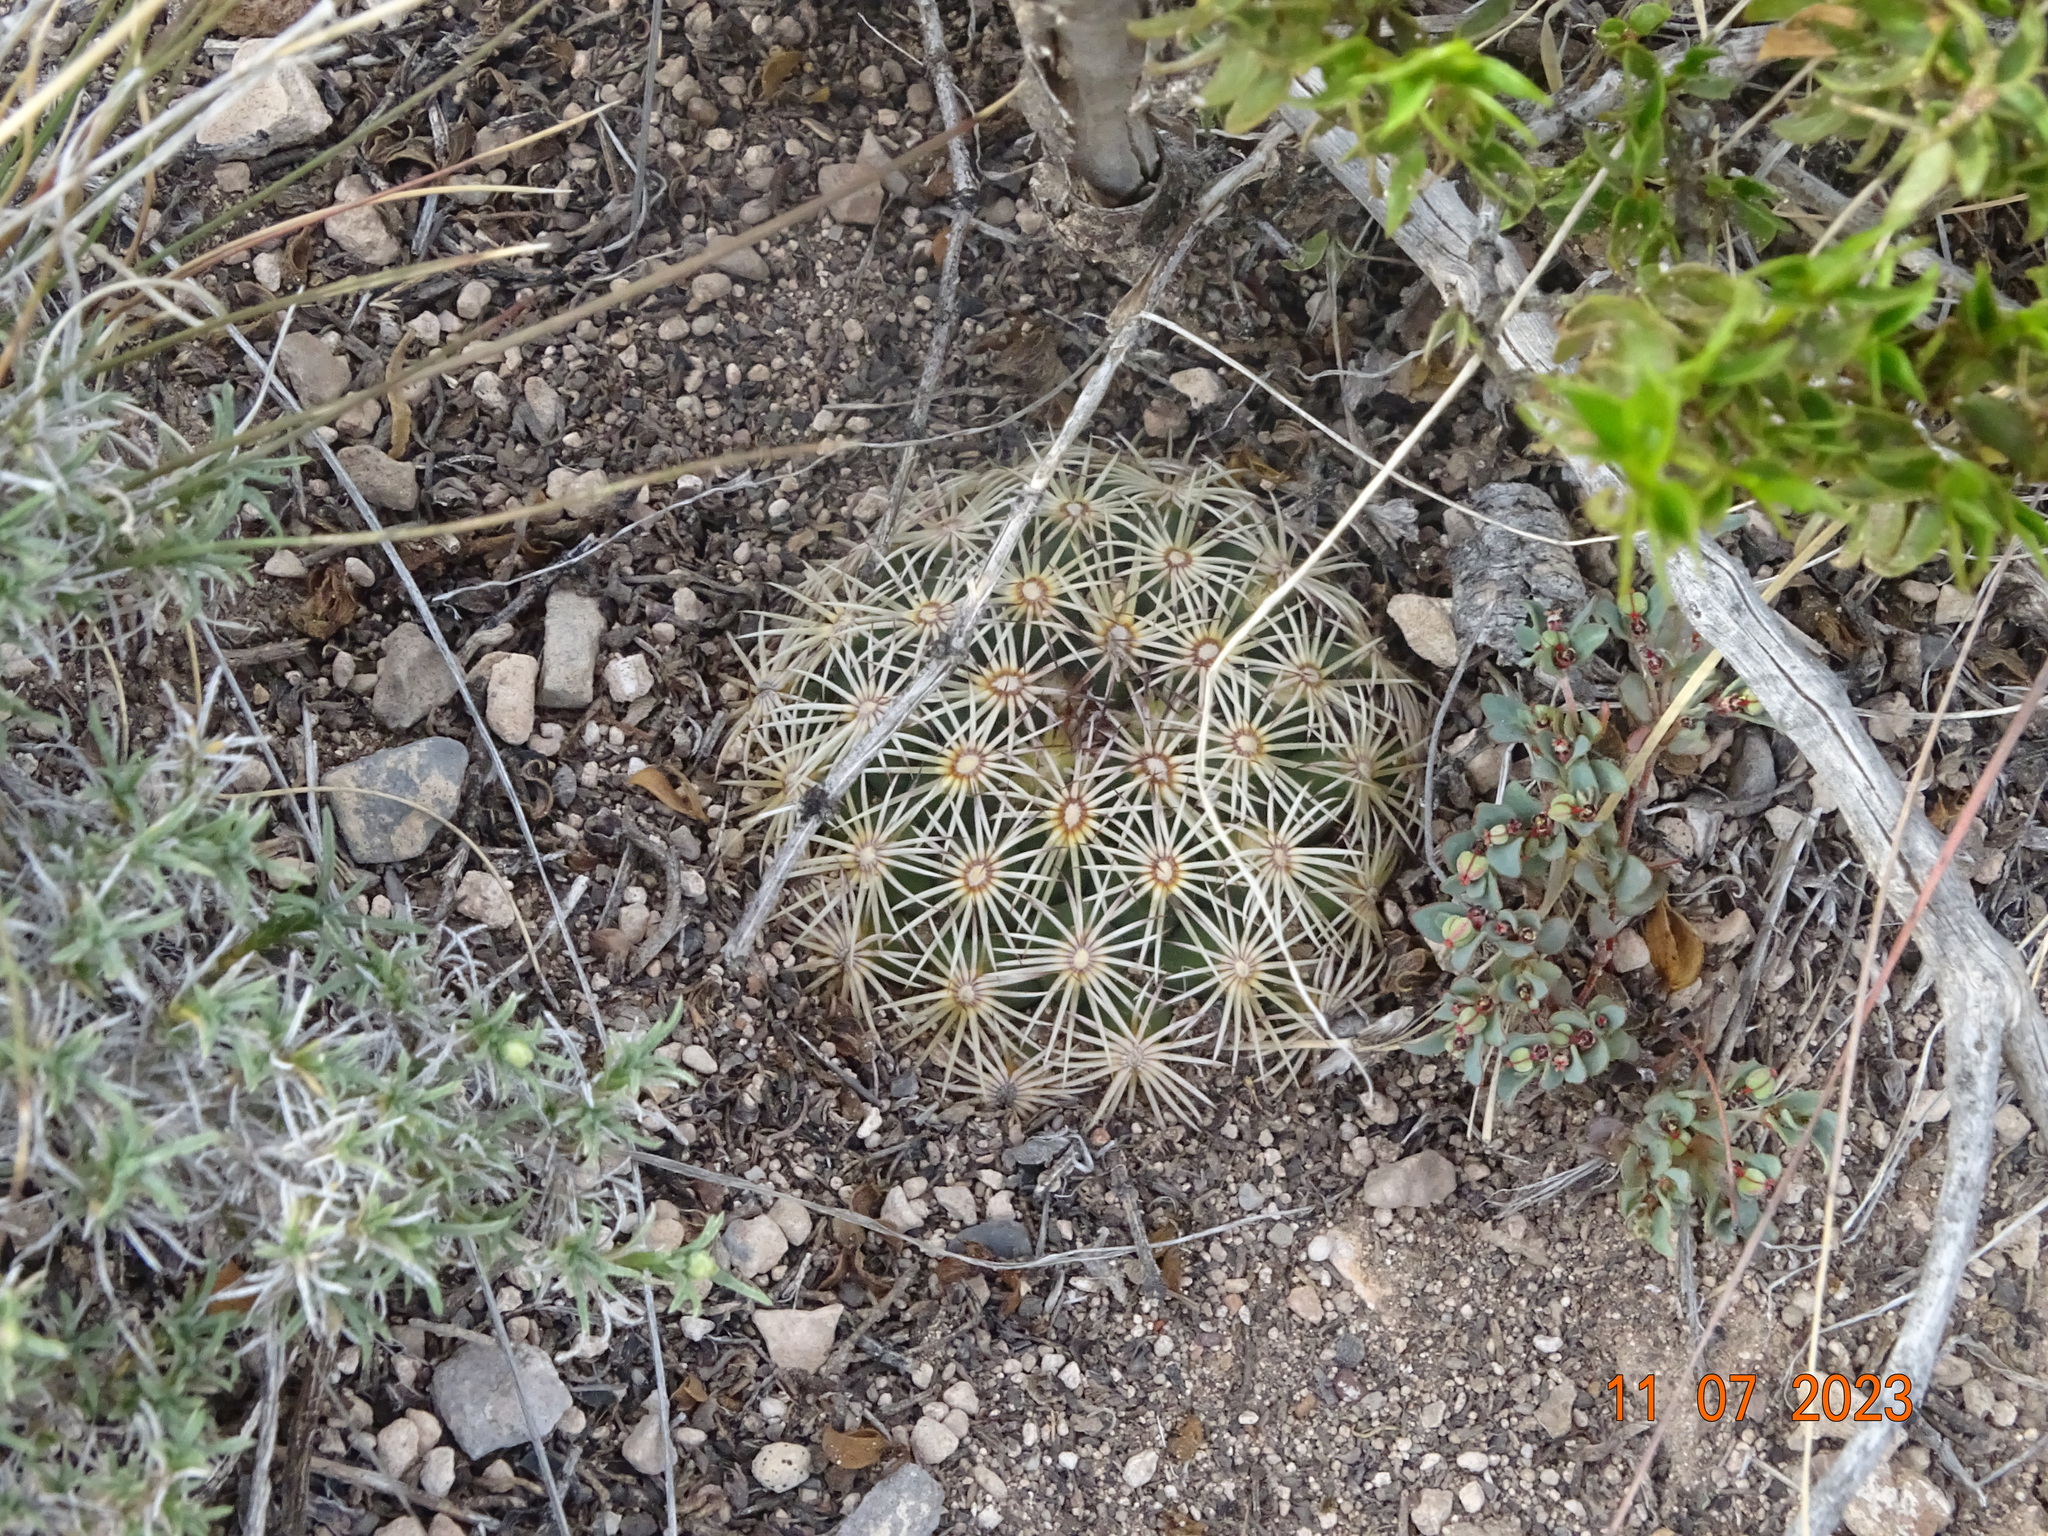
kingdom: Plantae
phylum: Tracheophyta
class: Magnoliopsida
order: Caryophyllales
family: Cactaceae
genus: Coryphantha
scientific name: Coryphantha delicata
